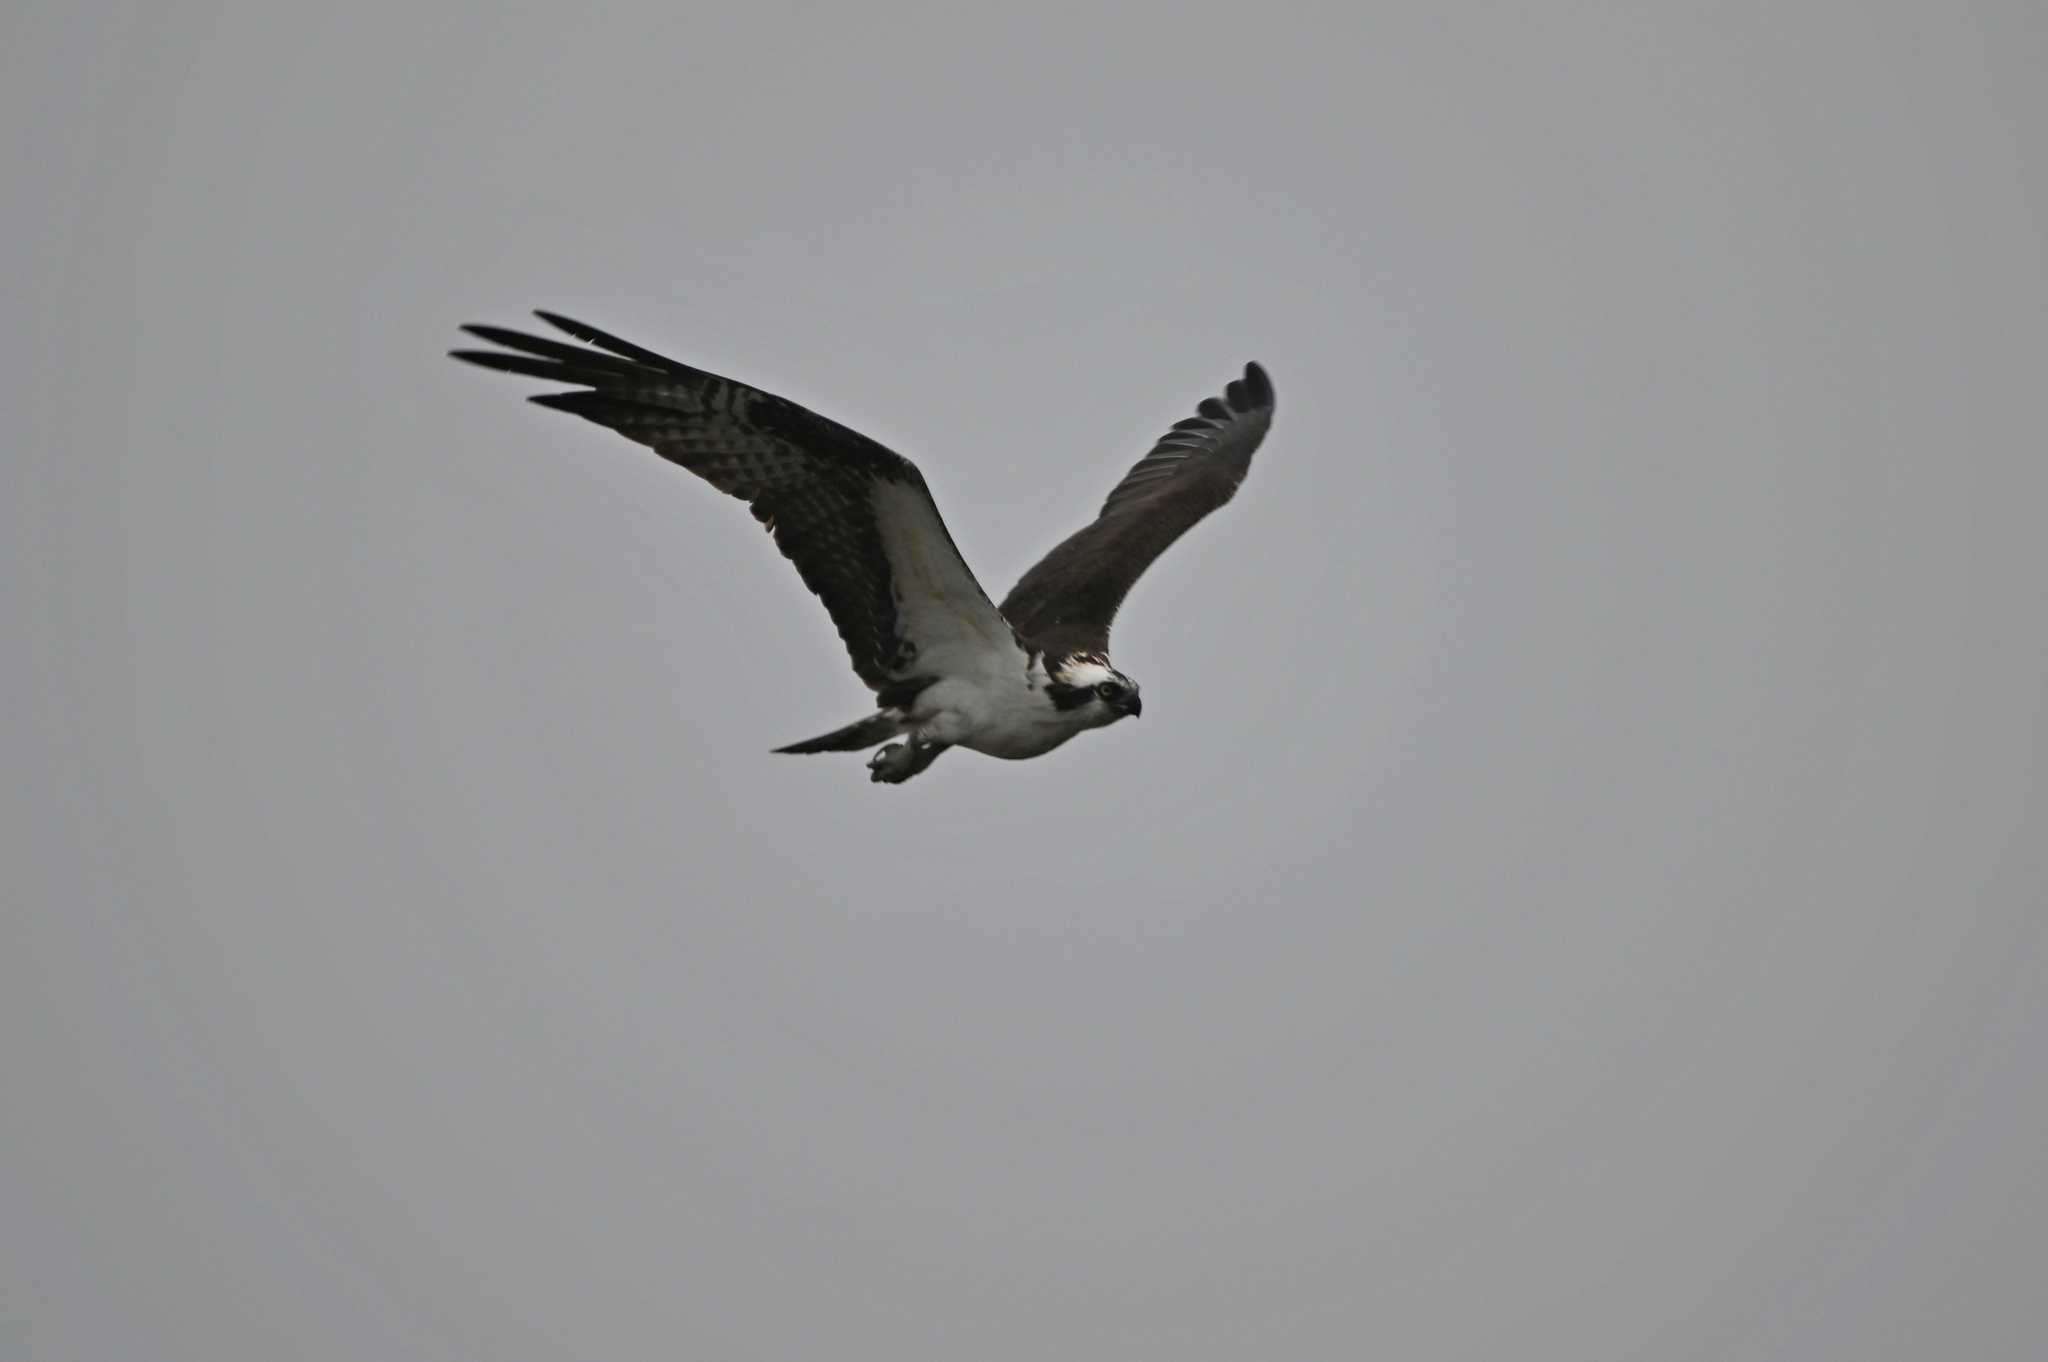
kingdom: Animalia
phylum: Chordata
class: Aves
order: Accipitriformes
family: Pandionidae
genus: Pandion
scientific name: Pandion haliaetus
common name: Osprey
